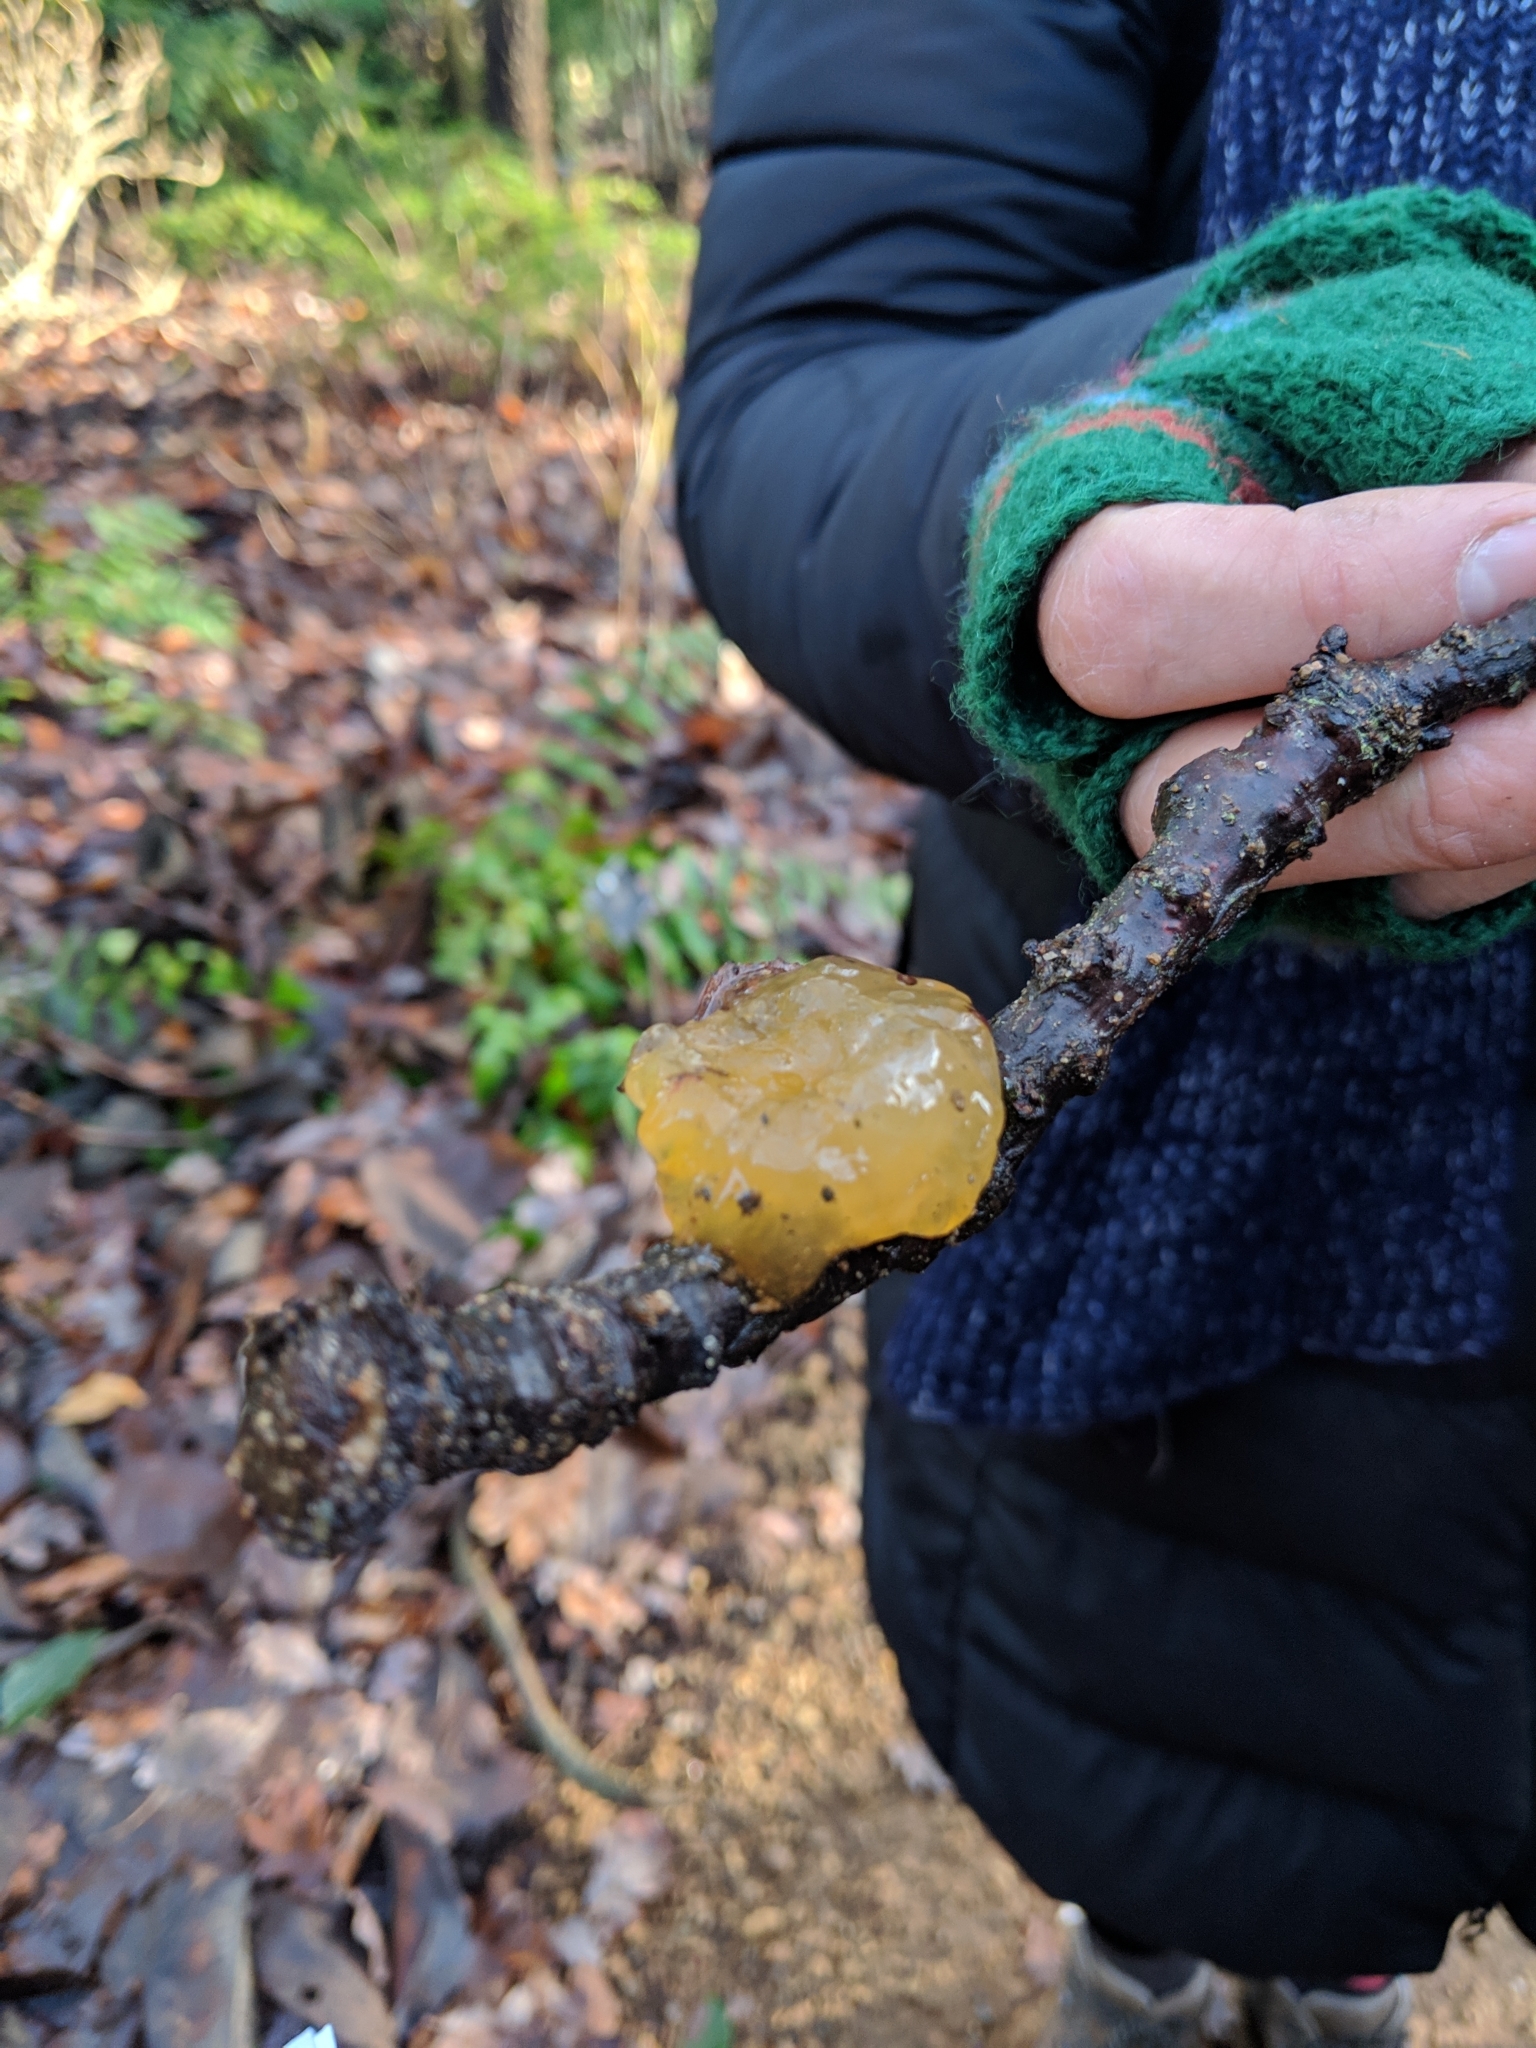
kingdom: Fungi
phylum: Basidiomycota
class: Tremellomycetes
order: Tremellales
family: Tremellaceae
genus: Tremella
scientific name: Tremella mesenterica
